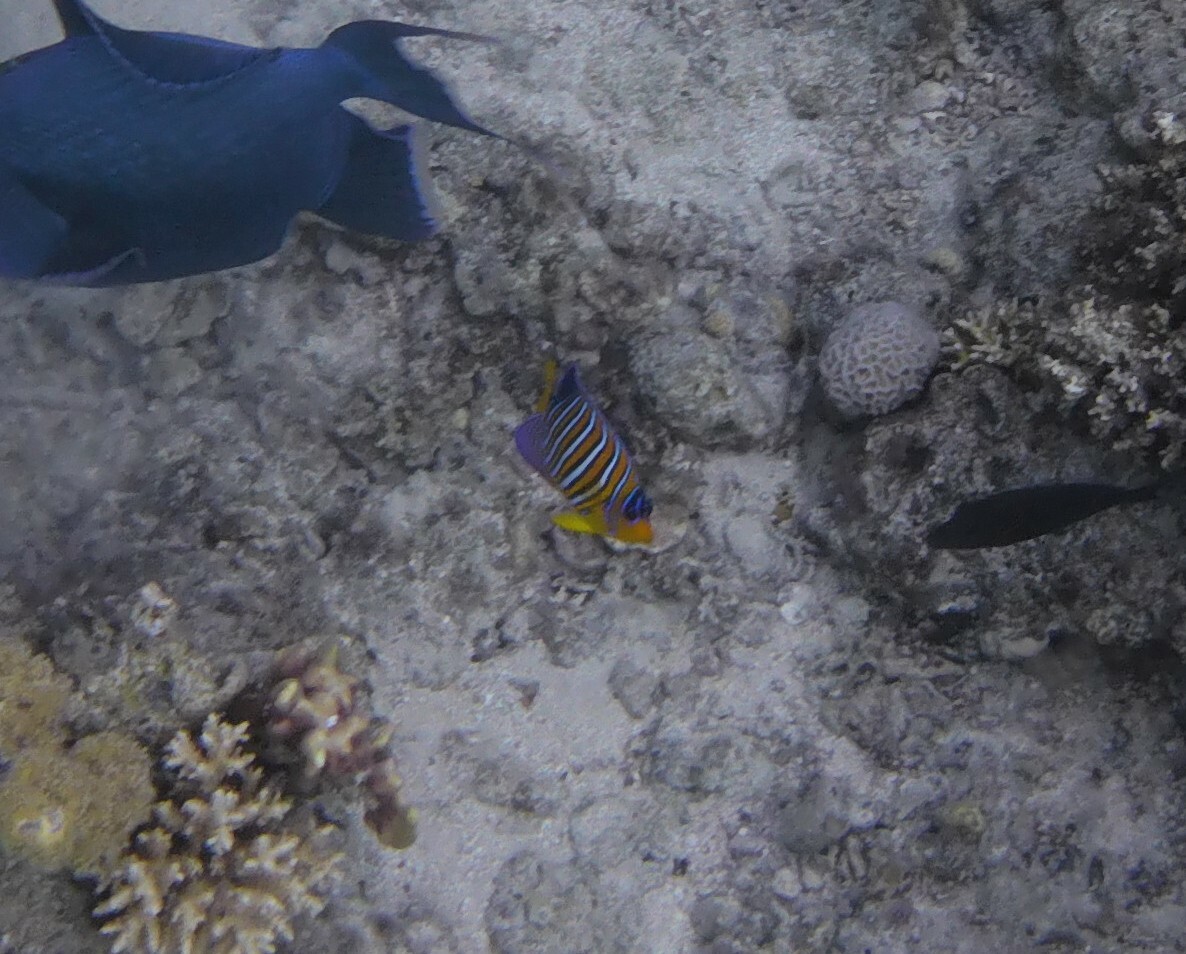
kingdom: Animalia
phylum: Chordata
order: Perciformes
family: Pomacanthidae
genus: Pygoplites
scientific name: Pygoplites diacanthus
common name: Regal angelfish
